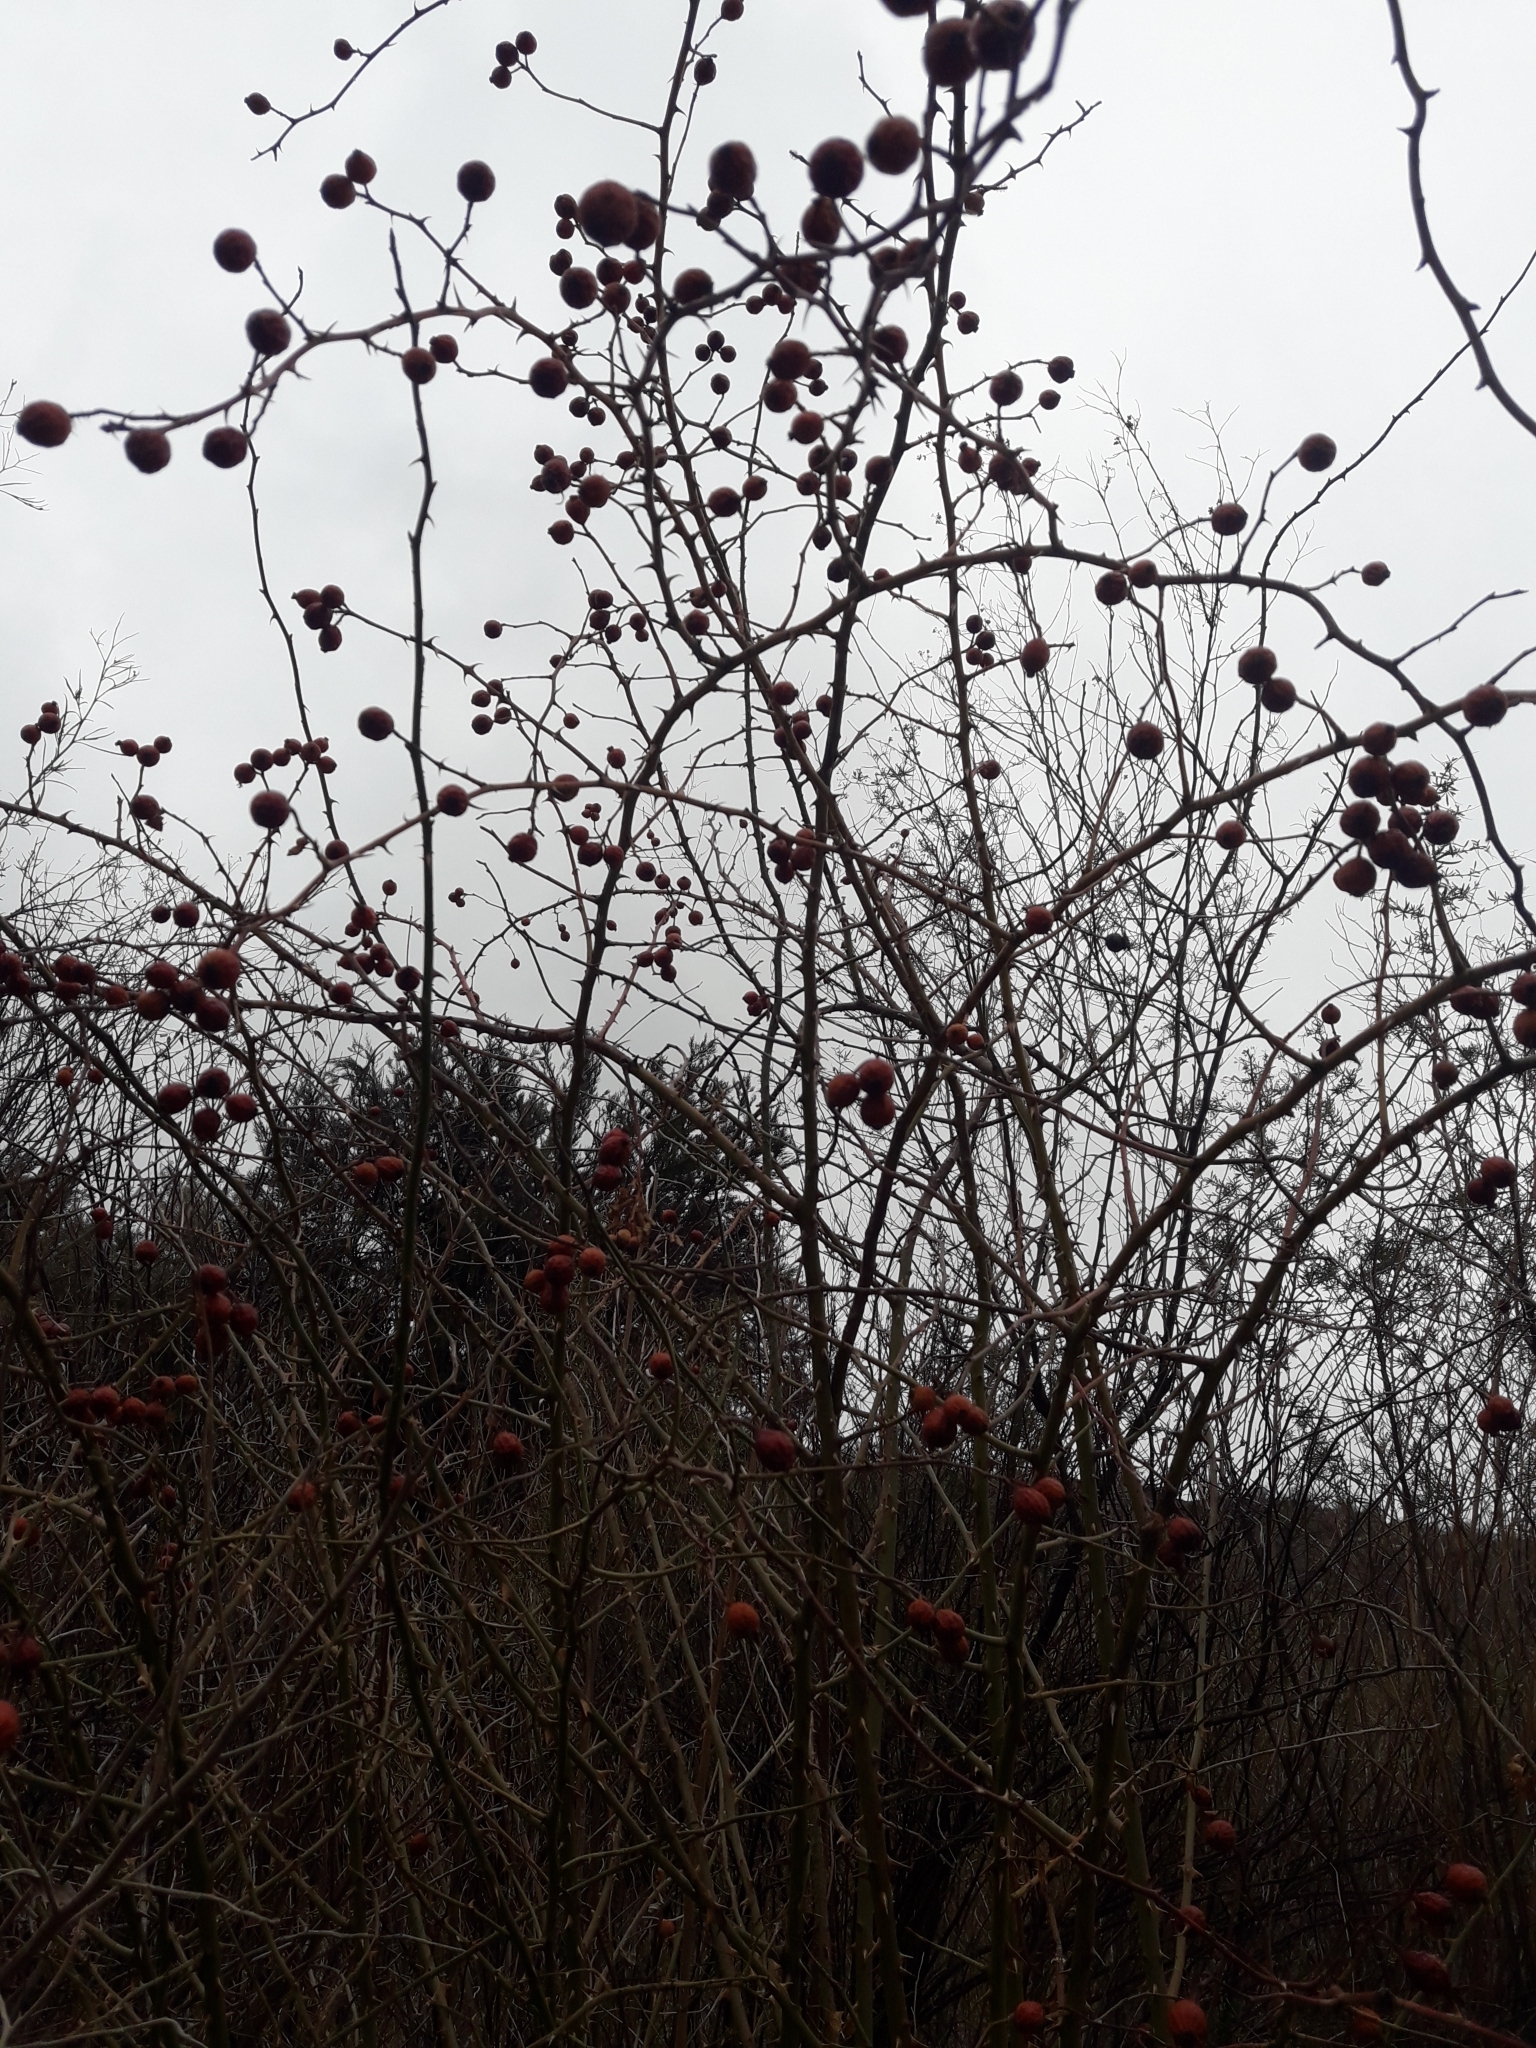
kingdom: Plantae
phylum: Tracheophyta
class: Magnoliopsida
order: Rosales
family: Rosaceae
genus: Rosa
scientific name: Rosa rubiginosa
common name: Sweet-briar
